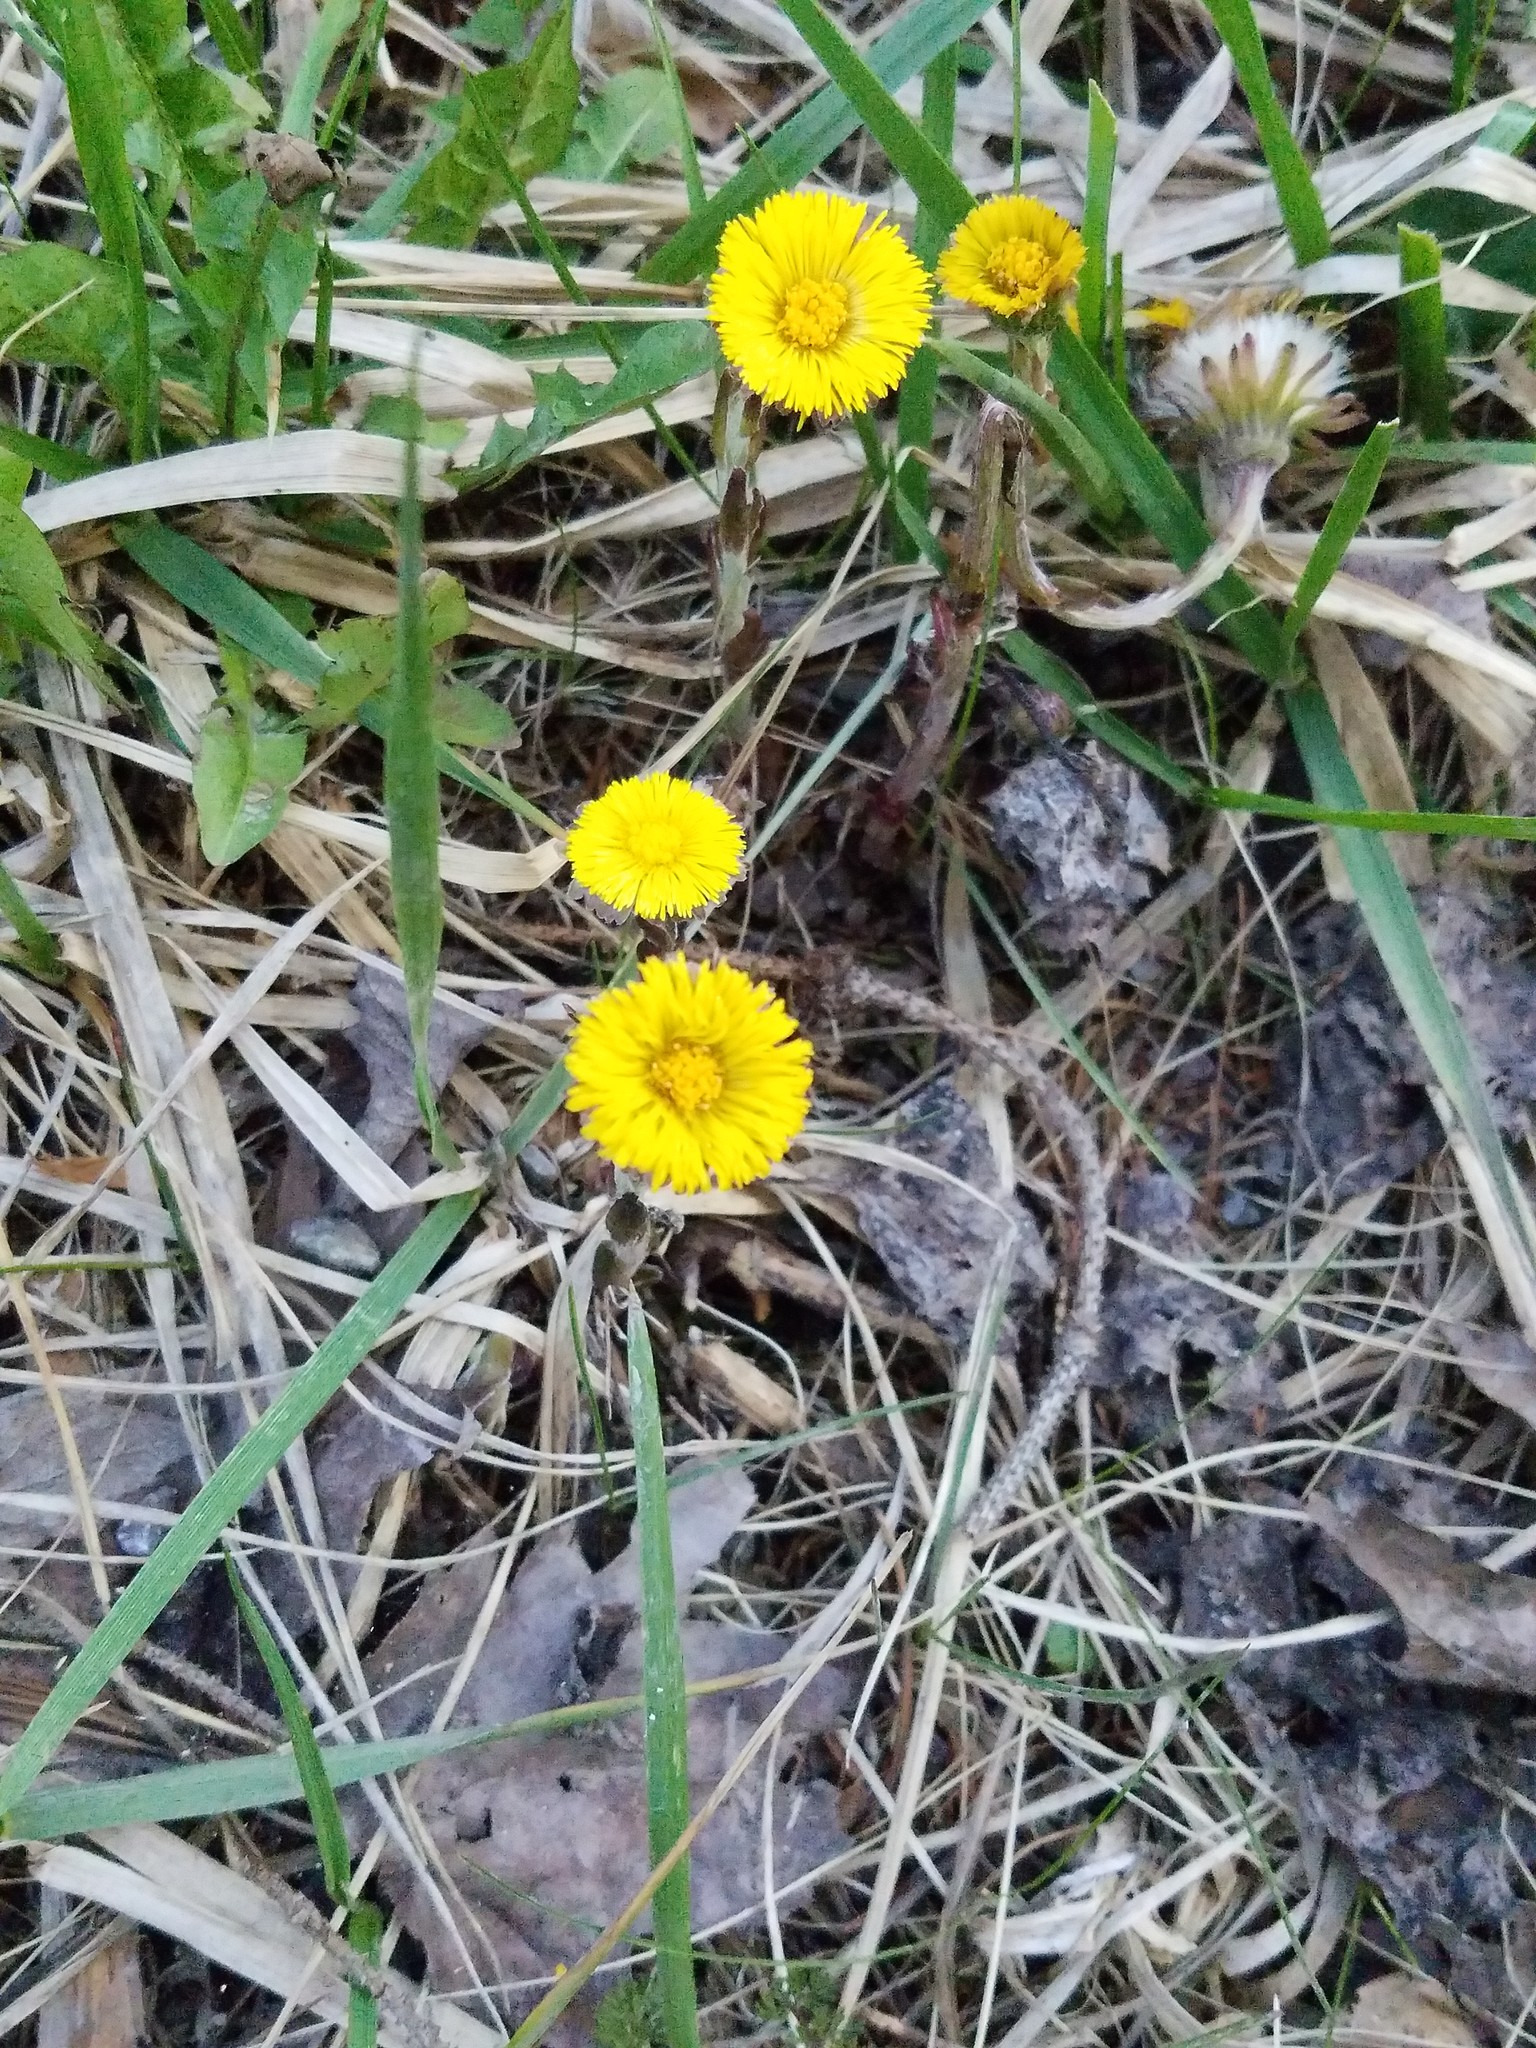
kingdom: Plantae
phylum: Tracheophyta
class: Magnoliopsida
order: Asterales
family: Asteraceae
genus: Tussilago
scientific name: Tussilago farfara
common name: Coltsfoot
